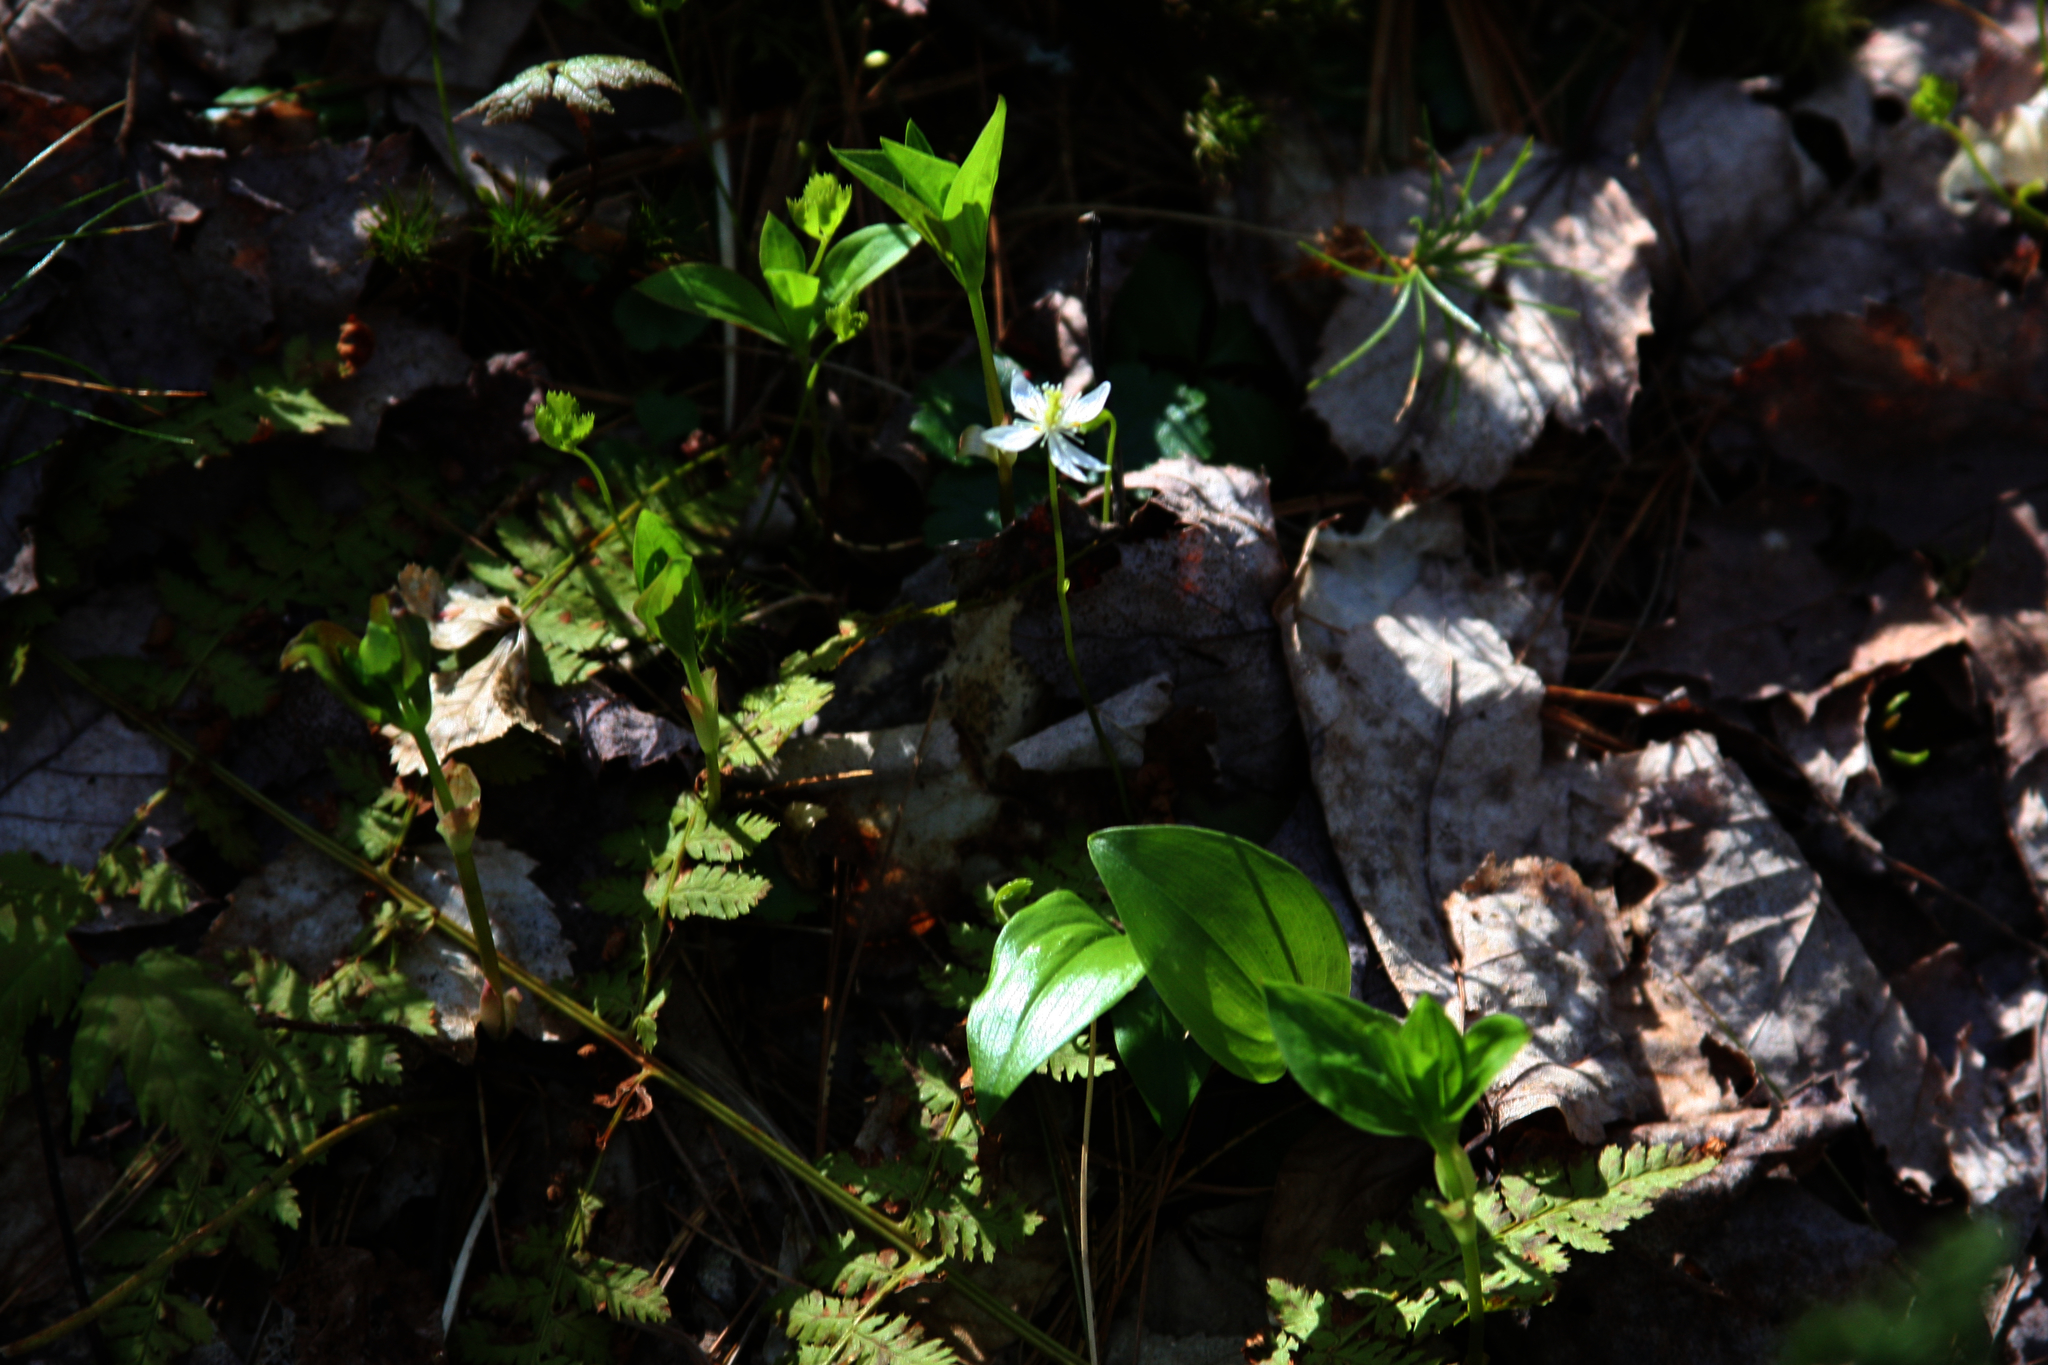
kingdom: Plantae
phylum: Tracheophyta
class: Magnoliopsida
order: Ranunculales
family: Ranunculaceae
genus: Coptis
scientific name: Coptis trifolia
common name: Canker-root
